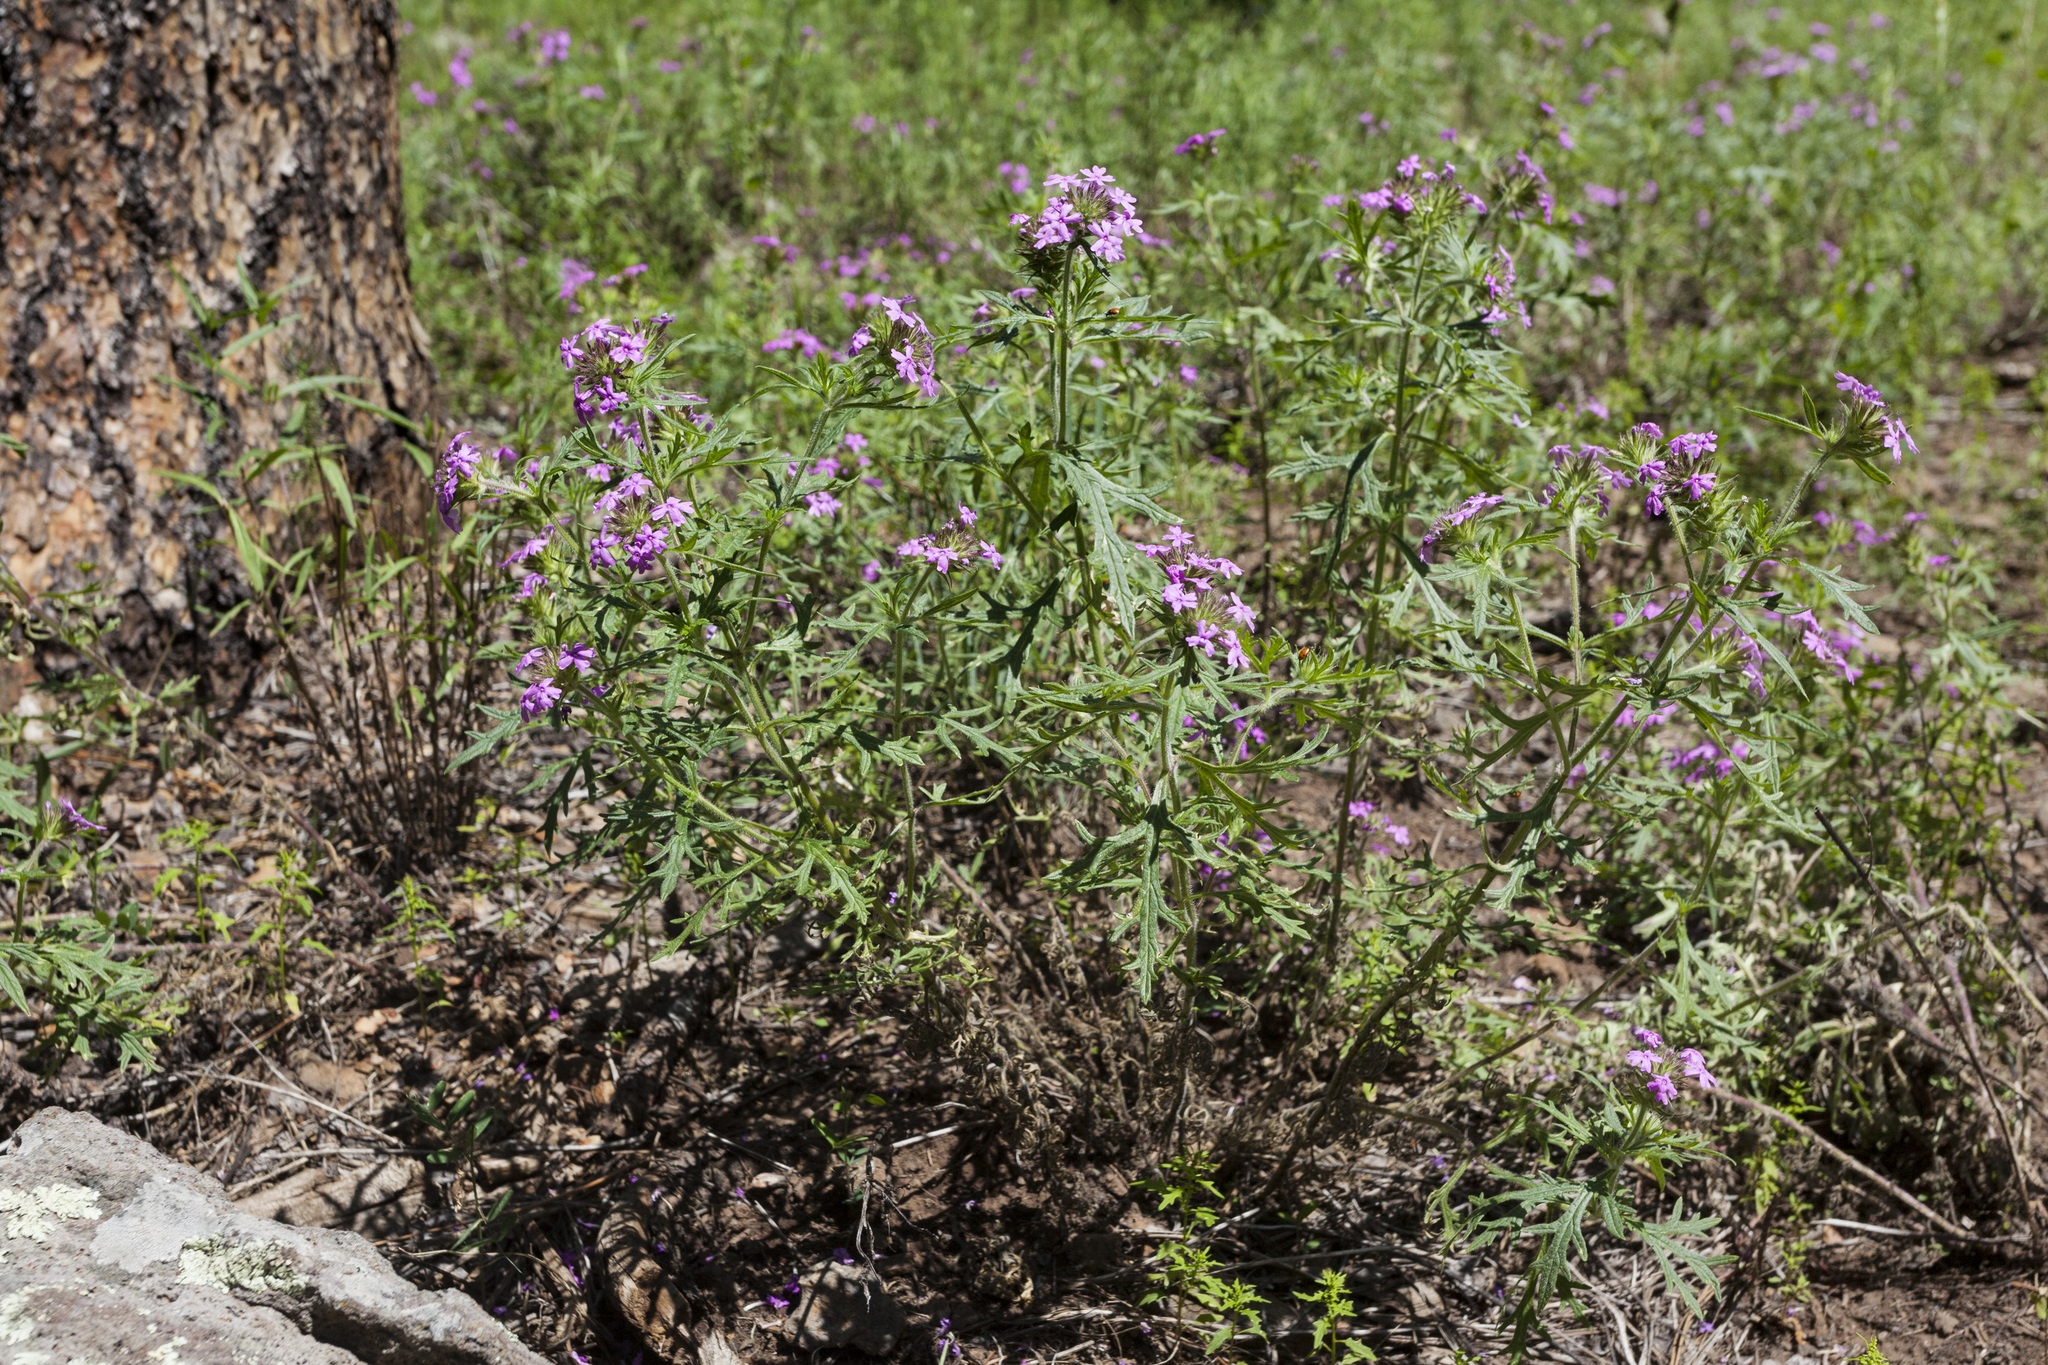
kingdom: Plantae
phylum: Tracheophyta
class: Magnoliopsida
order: Lamiales
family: Verbenaceae
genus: Verbena
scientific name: Verbena chiricahensis
